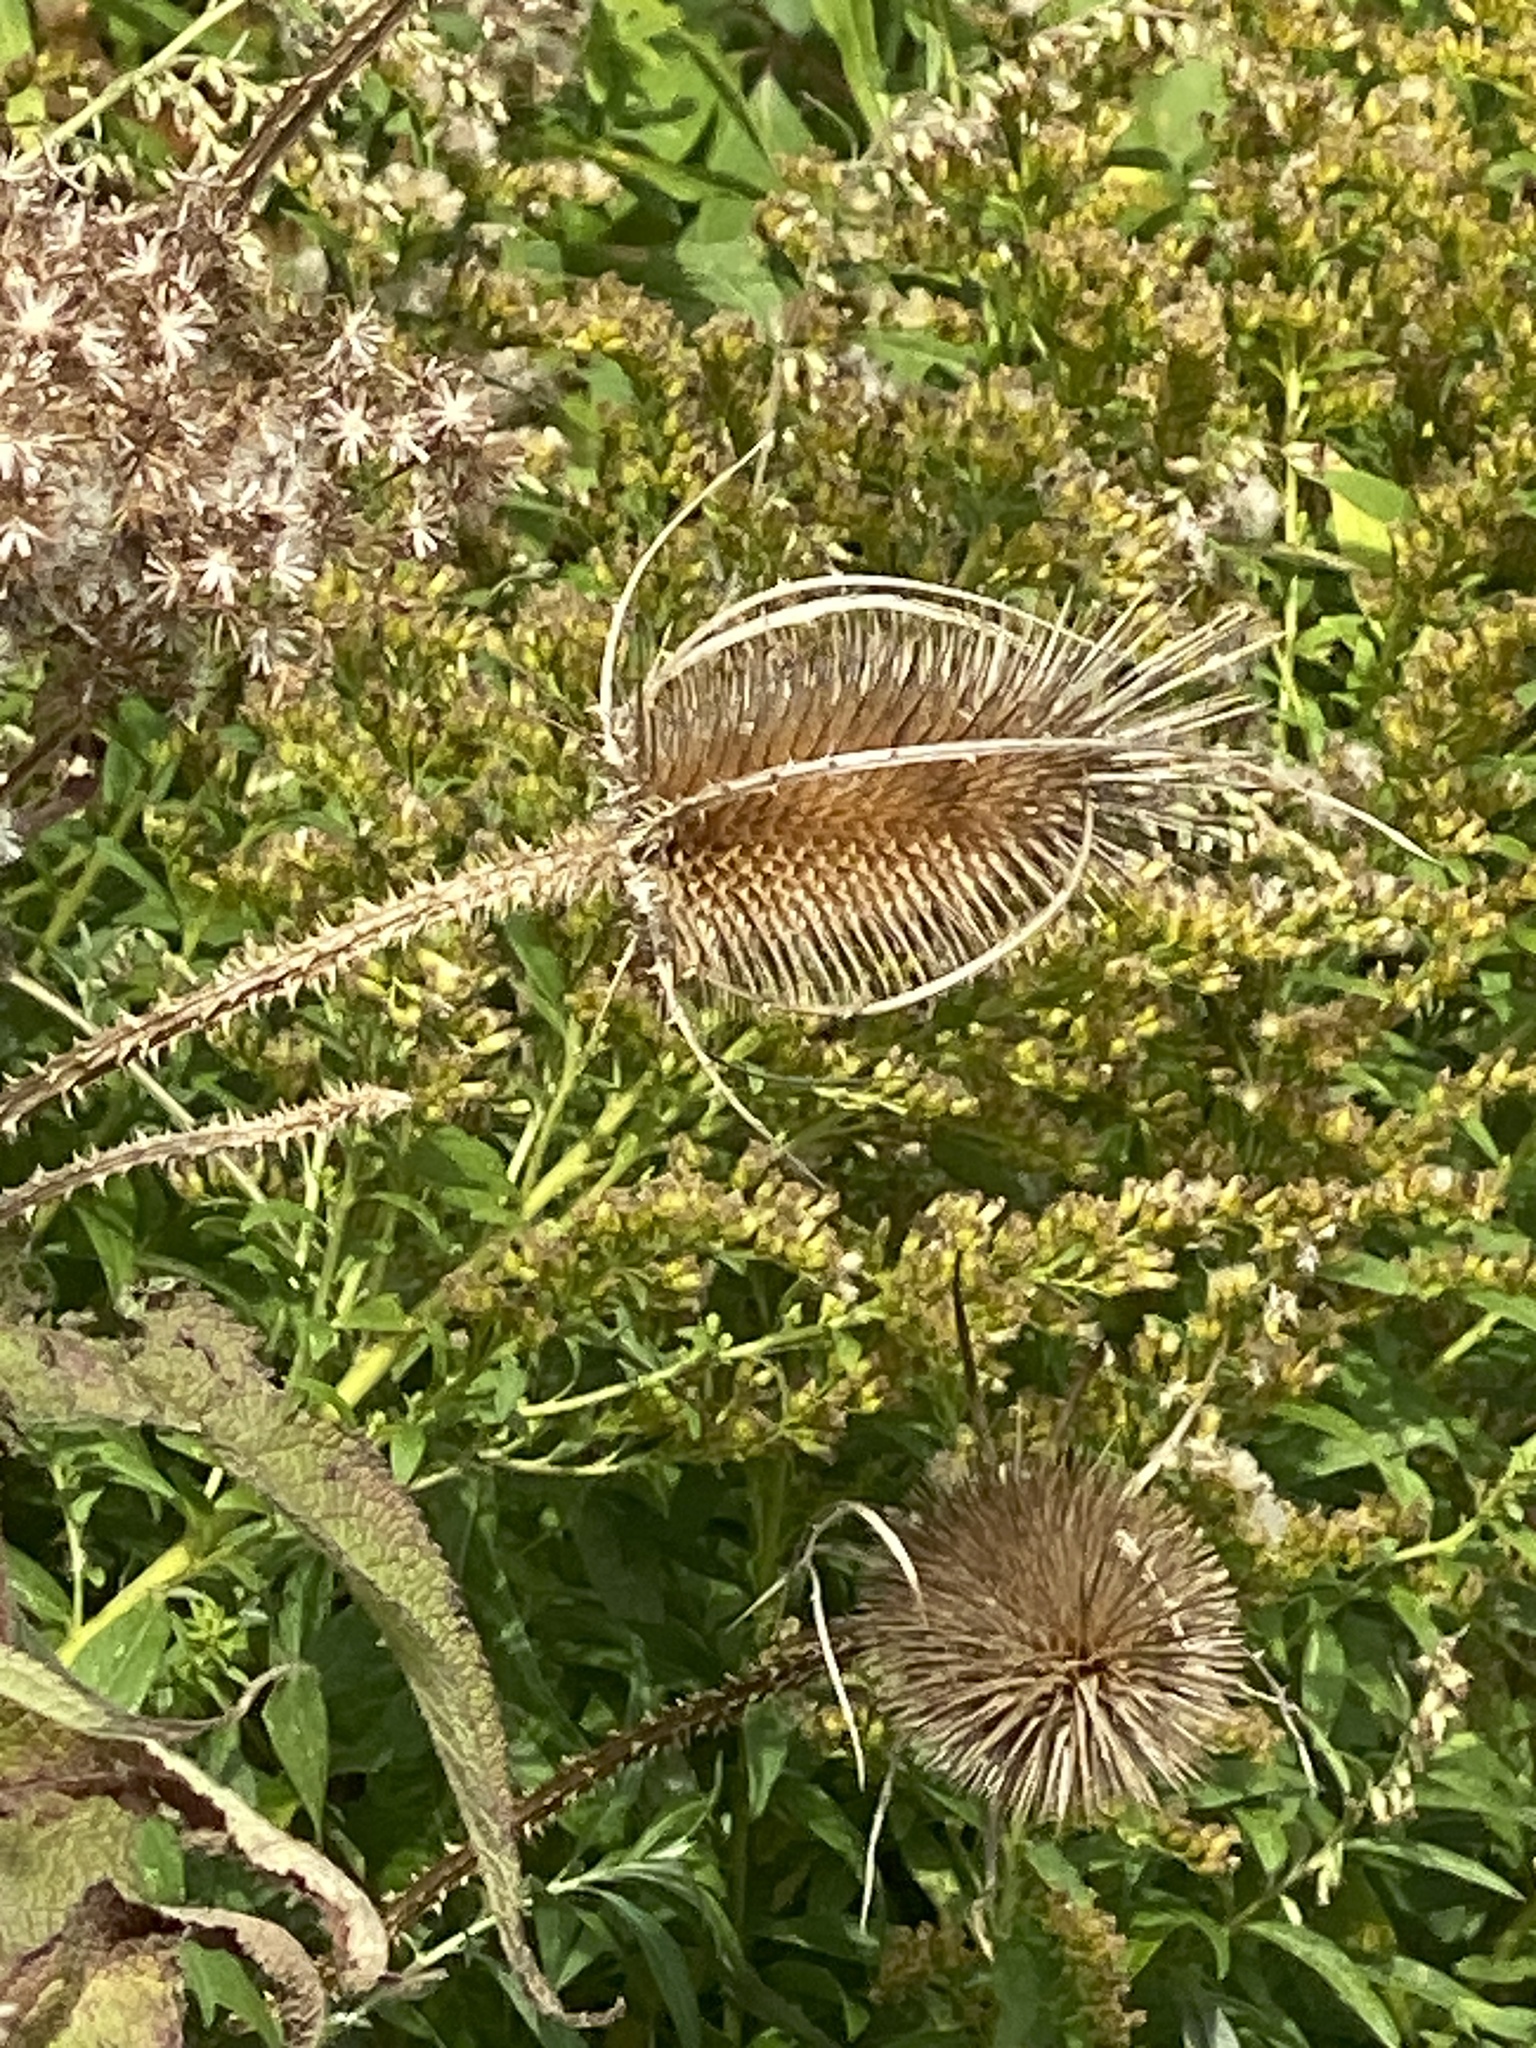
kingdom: Plantae
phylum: Tracheophyta
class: Magnoliopsida
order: Dipsacales
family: Caprifoliaceae
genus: Dipsacus
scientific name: Dipsacus fullonum
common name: Teasel
